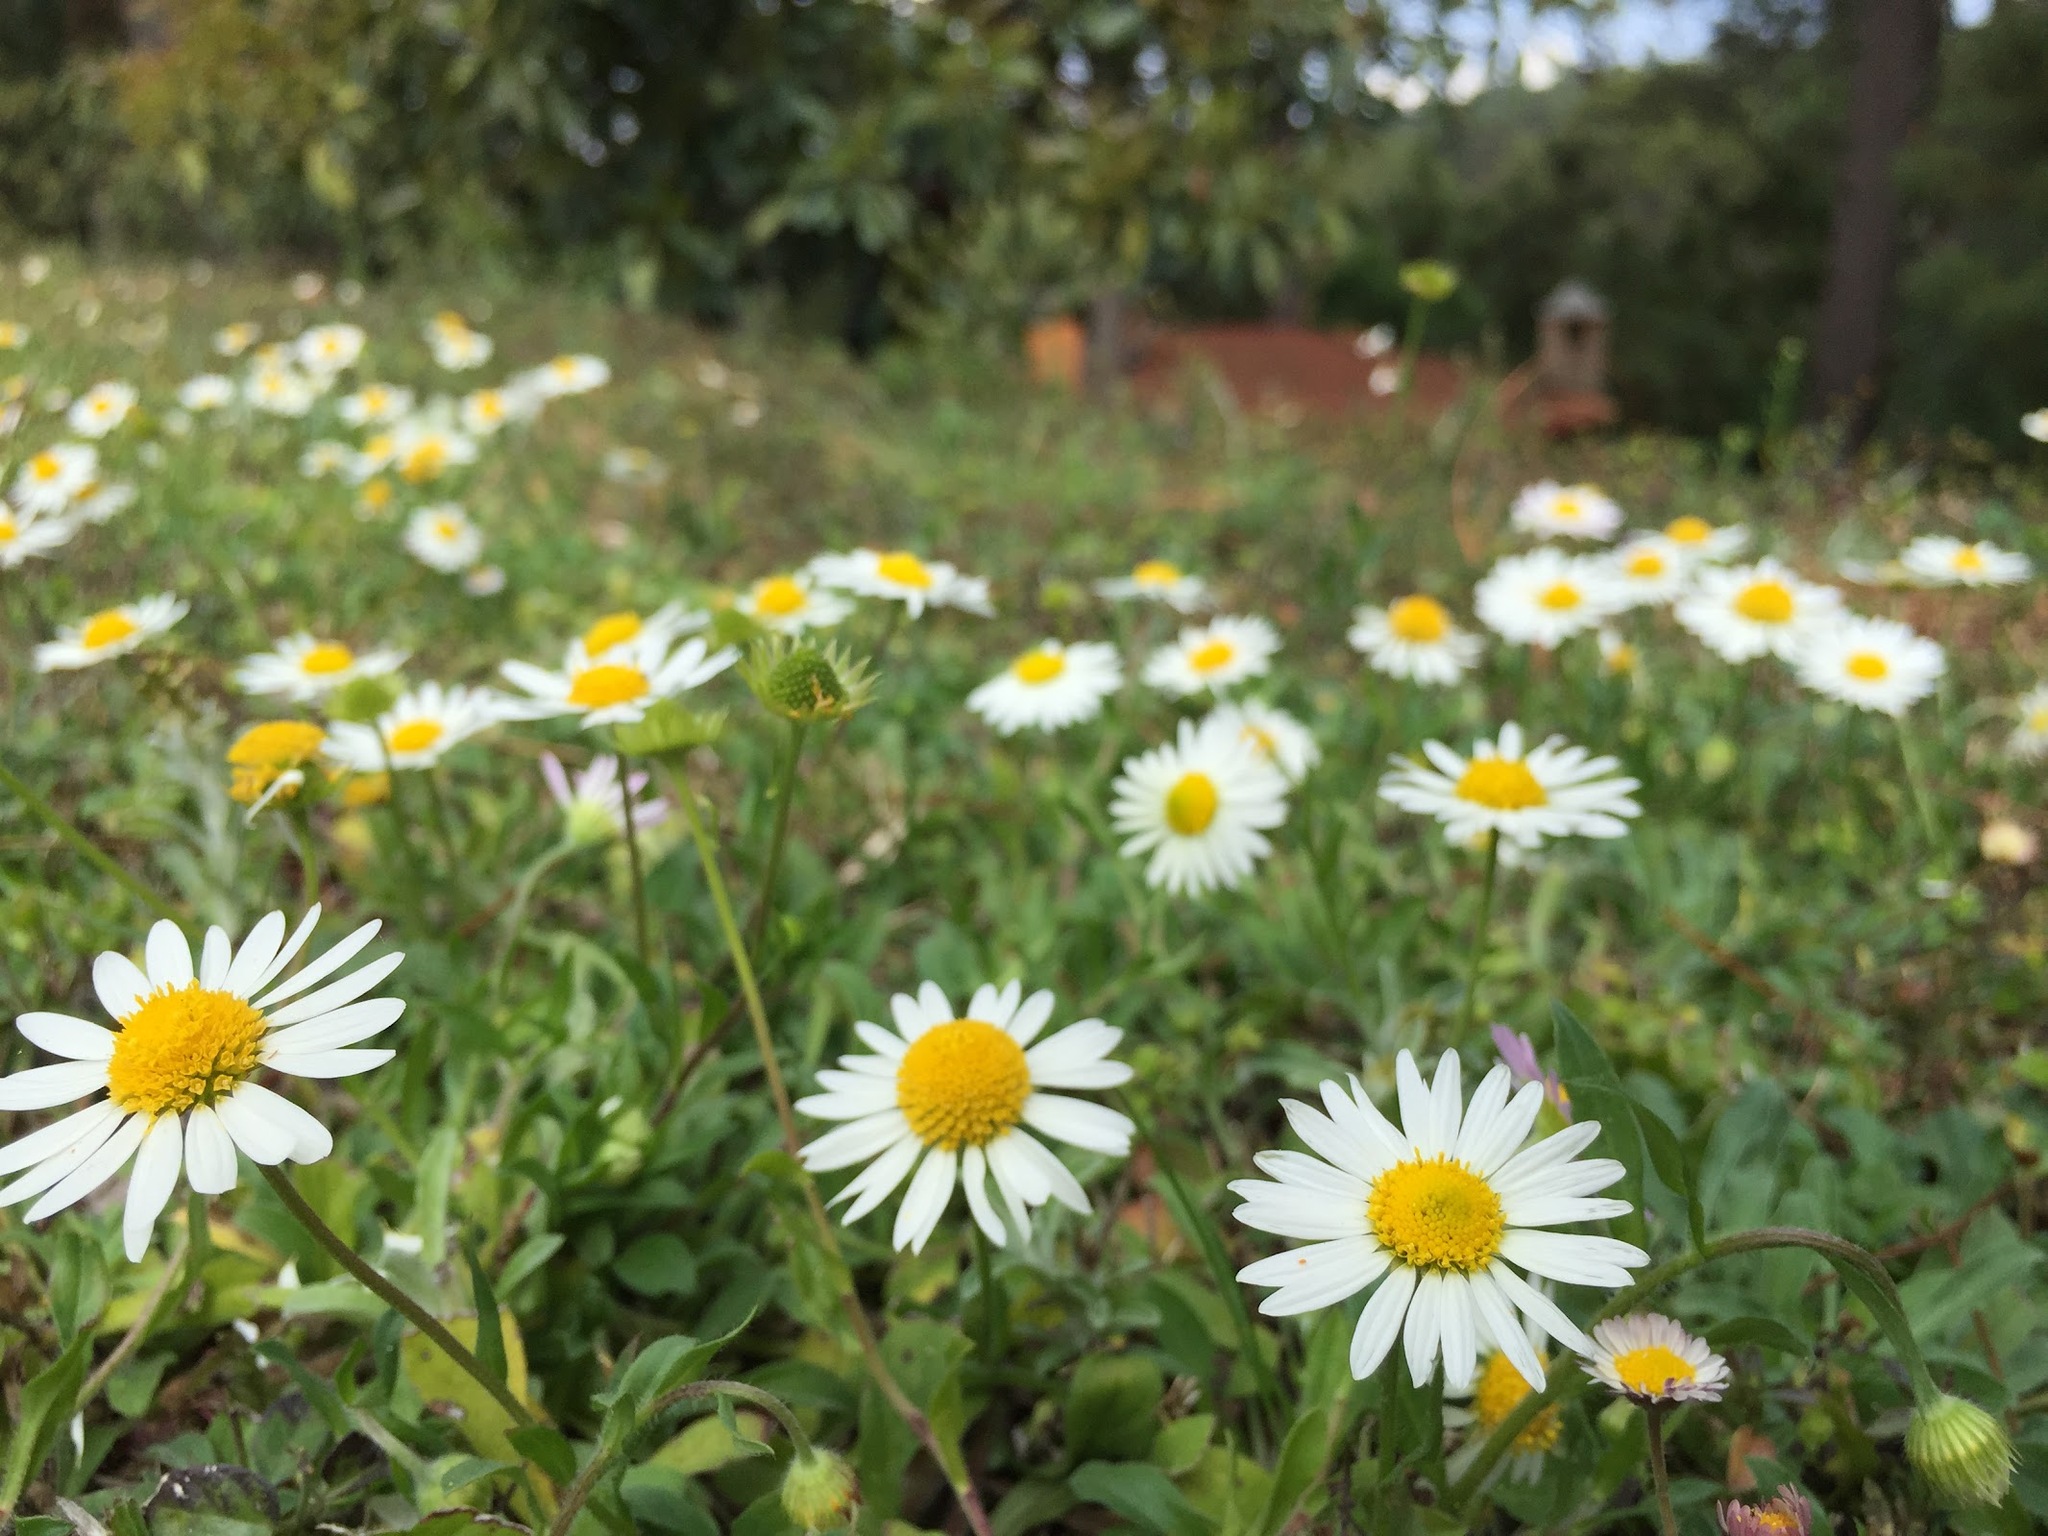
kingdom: Plantae
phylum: Tracheophyta
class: Magnoliopsida
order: Asterales
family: Asteraceae
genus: Aphanostephus
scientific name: Aphanostephus ramosissimus
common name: Plains lazy daisy
